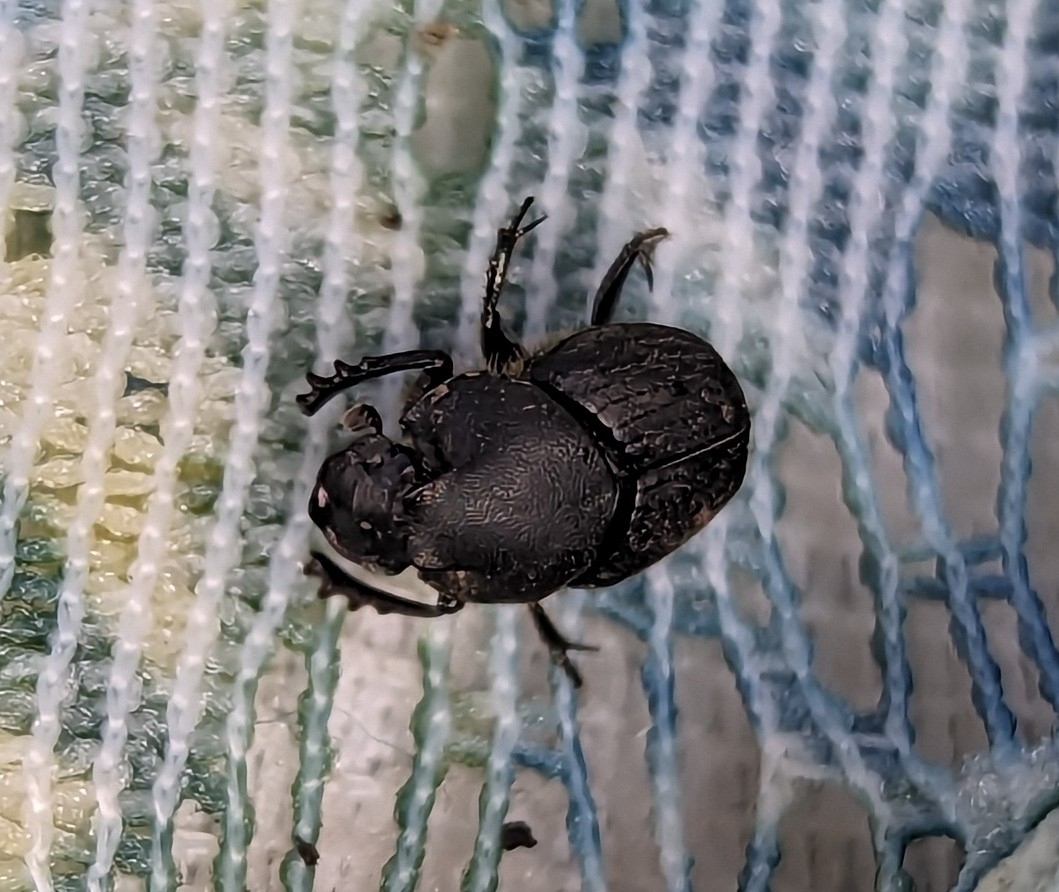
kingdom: Animalia
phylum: Arthropoda
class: Insecta
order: Coleoptera
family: Scarabaeidae
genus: Onthophagus
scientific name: Onthophagus hecate
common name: Scooped scarab
